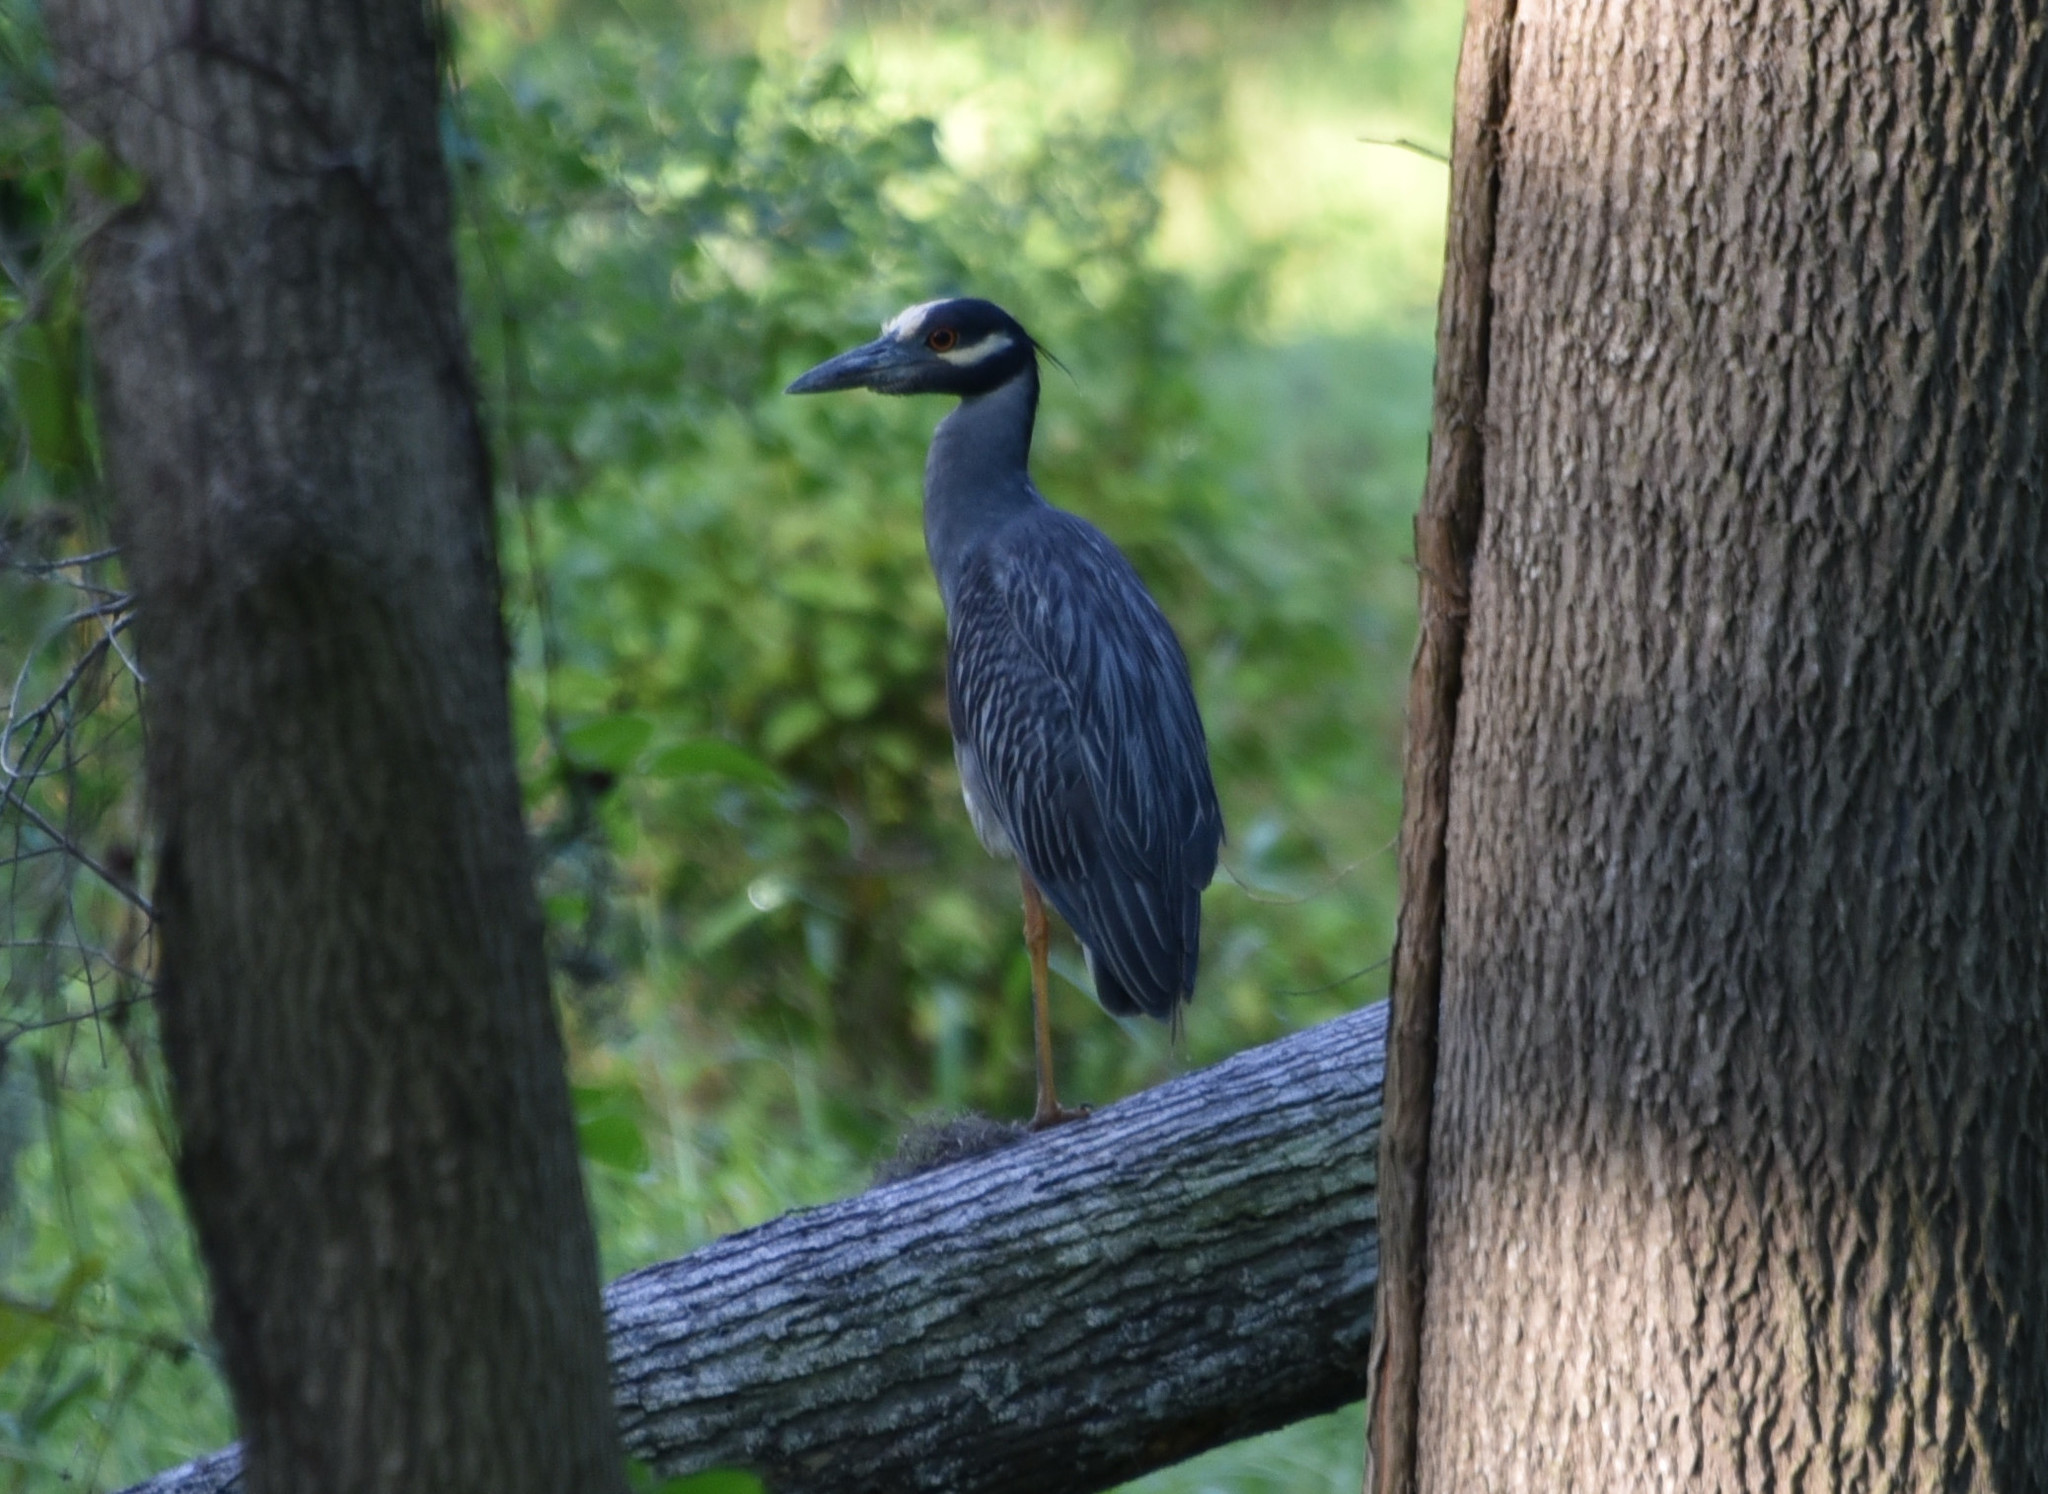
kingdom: Animalia
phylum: Chordata
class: Aves
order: Pelecaniformes
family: Ardeidae
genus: Nyctanassa
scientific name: Nyctanassa violacea
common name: Yellow-crowned night heron
